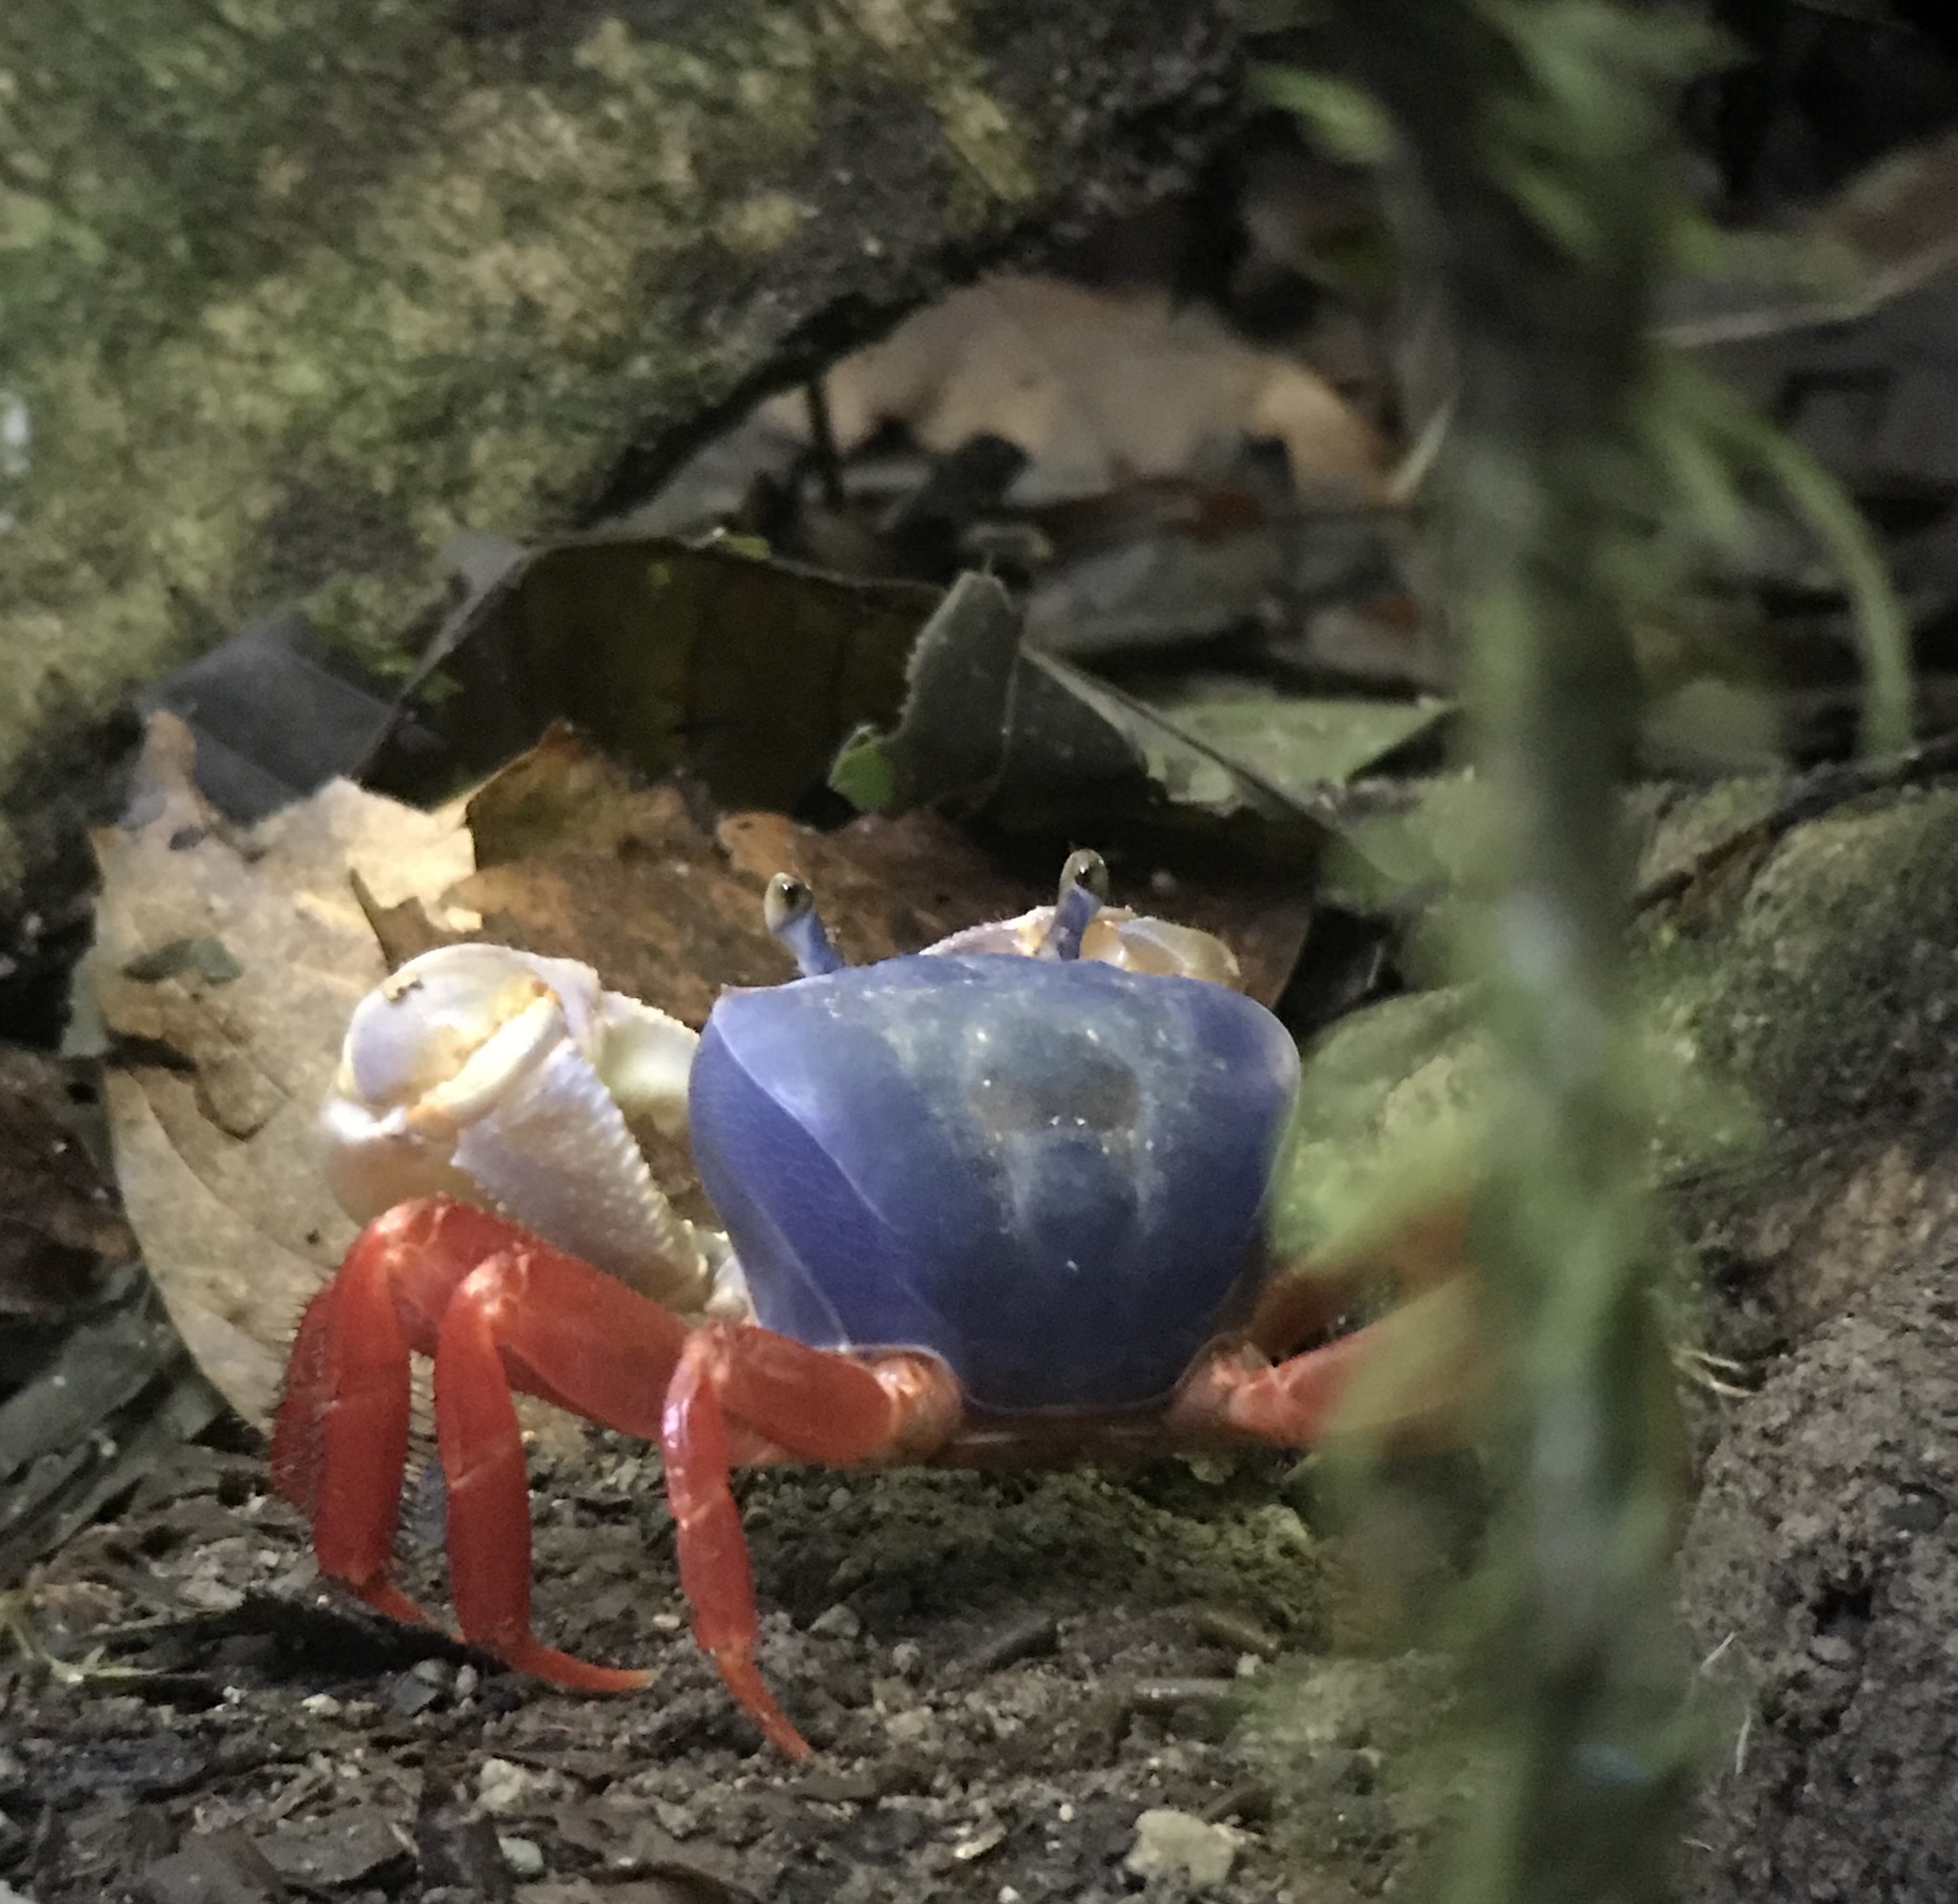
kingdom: Animalia
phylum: Arthropoda
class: Malacostraca
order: Decapoda
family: Gecarcinidae
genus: Cardisoma
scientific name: Cardisoma crassum
